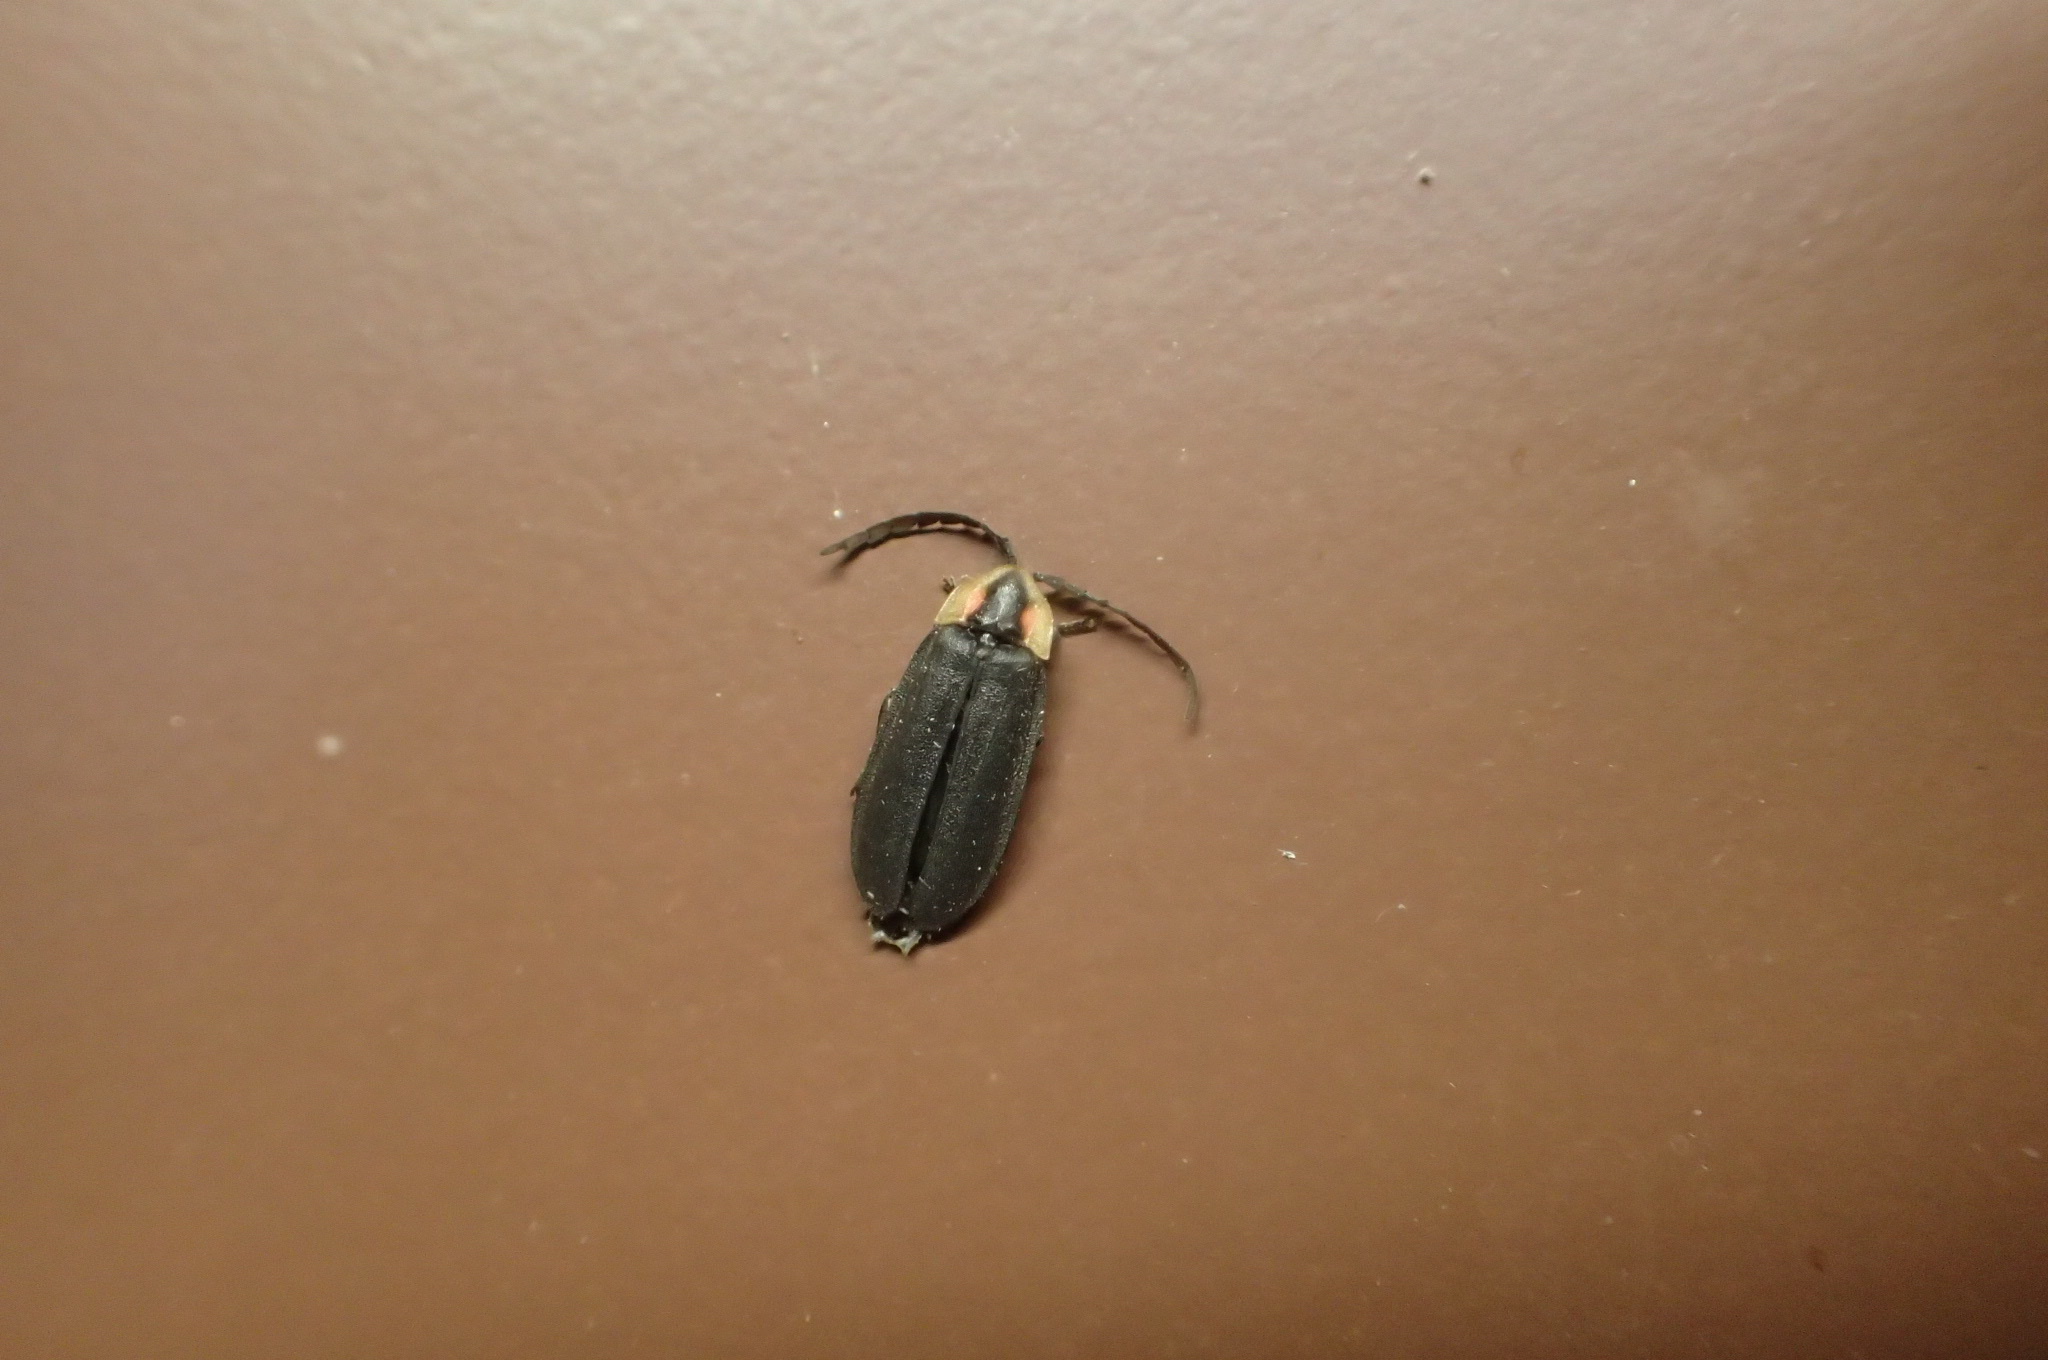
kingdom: Animalia
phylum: Arthropoda
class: Insecta
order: Coleoptera
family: Lampyridae
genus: Lucidota
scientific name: Lucidota atra
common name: Black firefly
